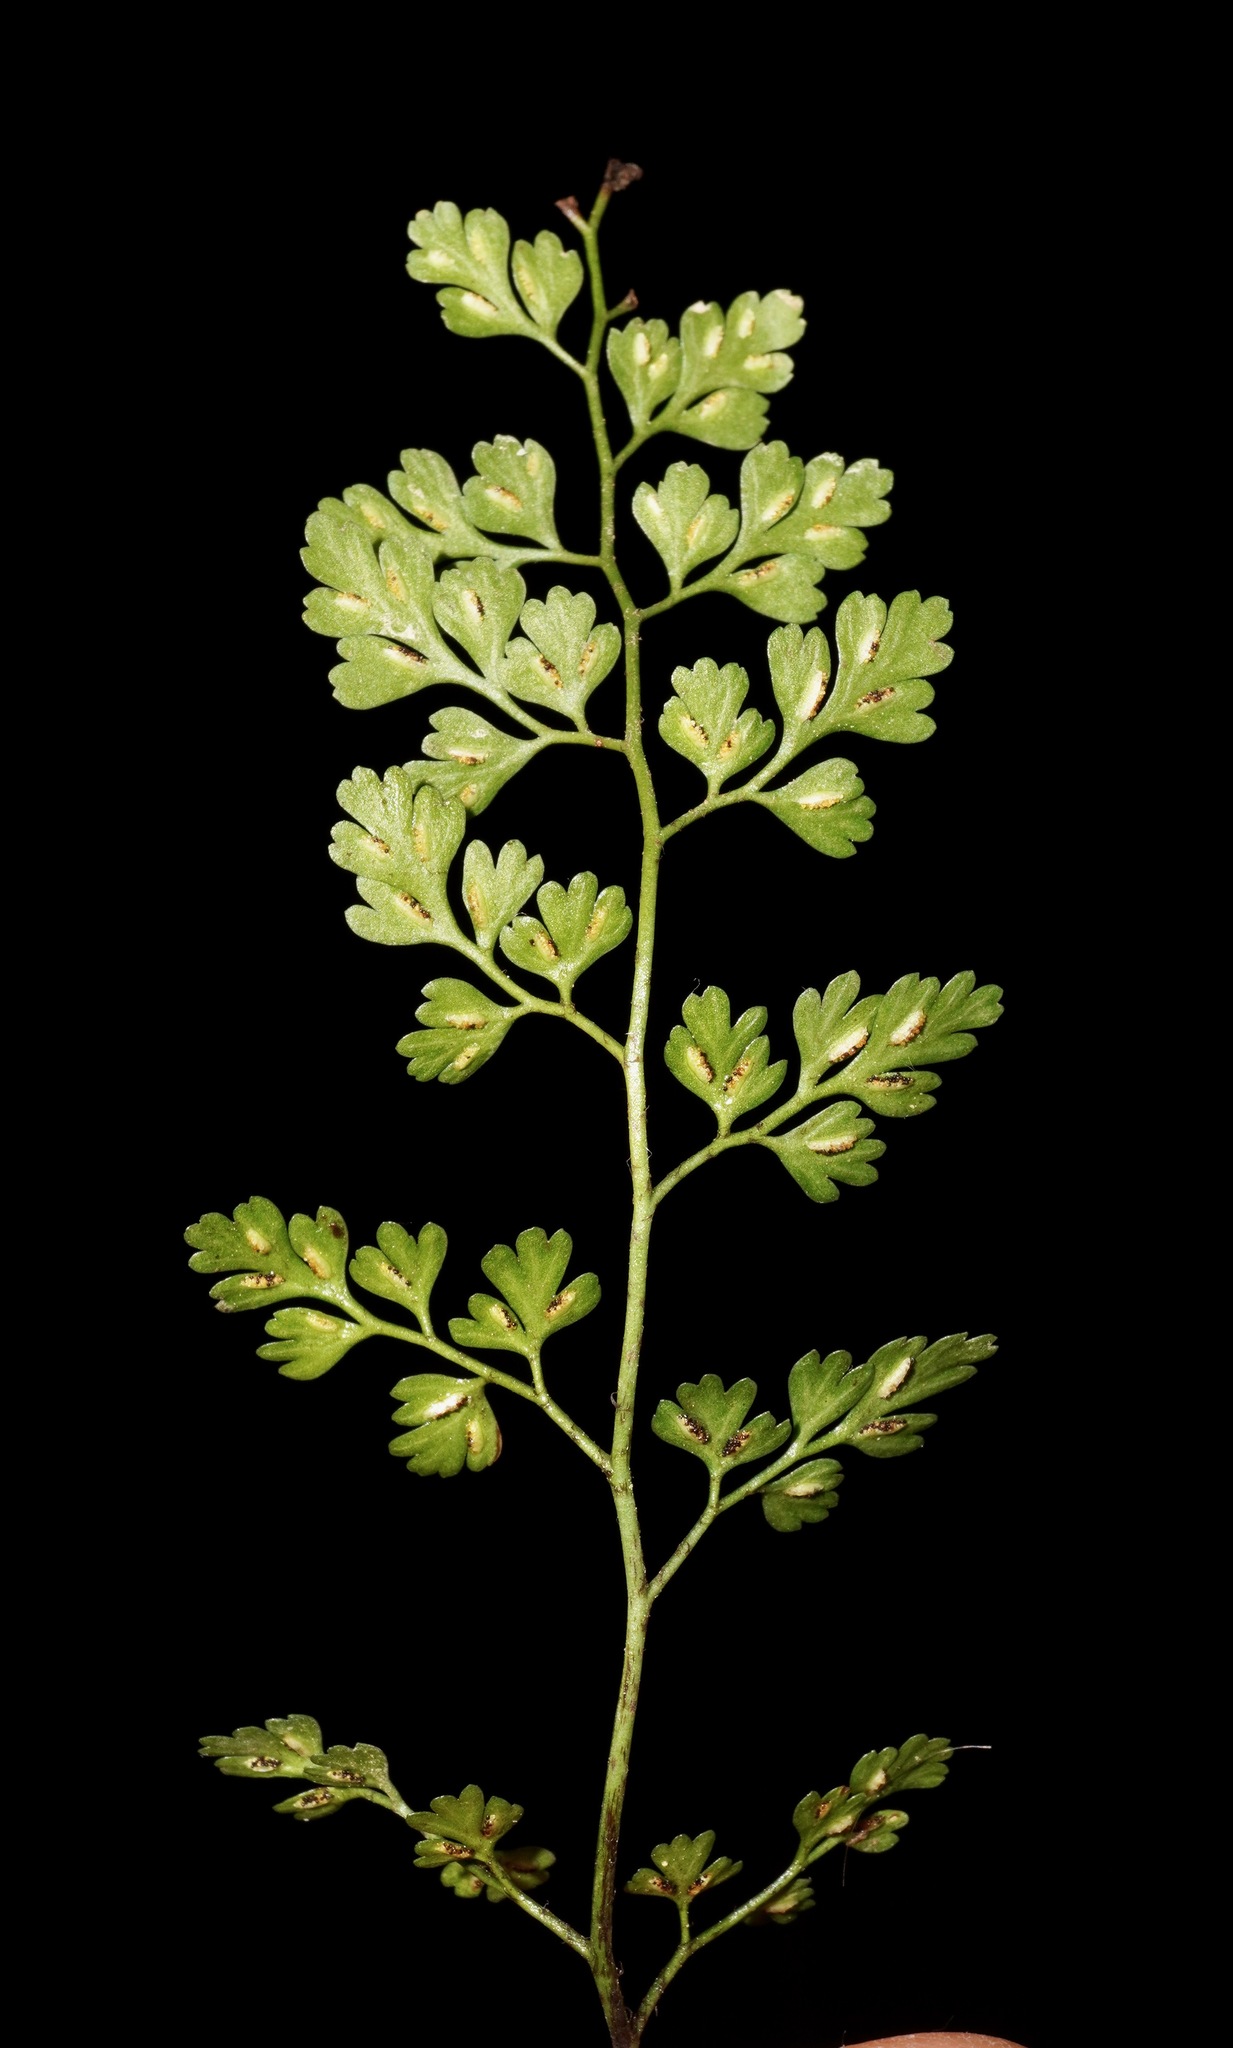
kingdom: Plantae
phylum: Tracheophyta
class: Polypodiopsida
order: Polypodiales
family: Aspleniaceae
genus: Asplenium
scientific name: Asplenium hookerianum
